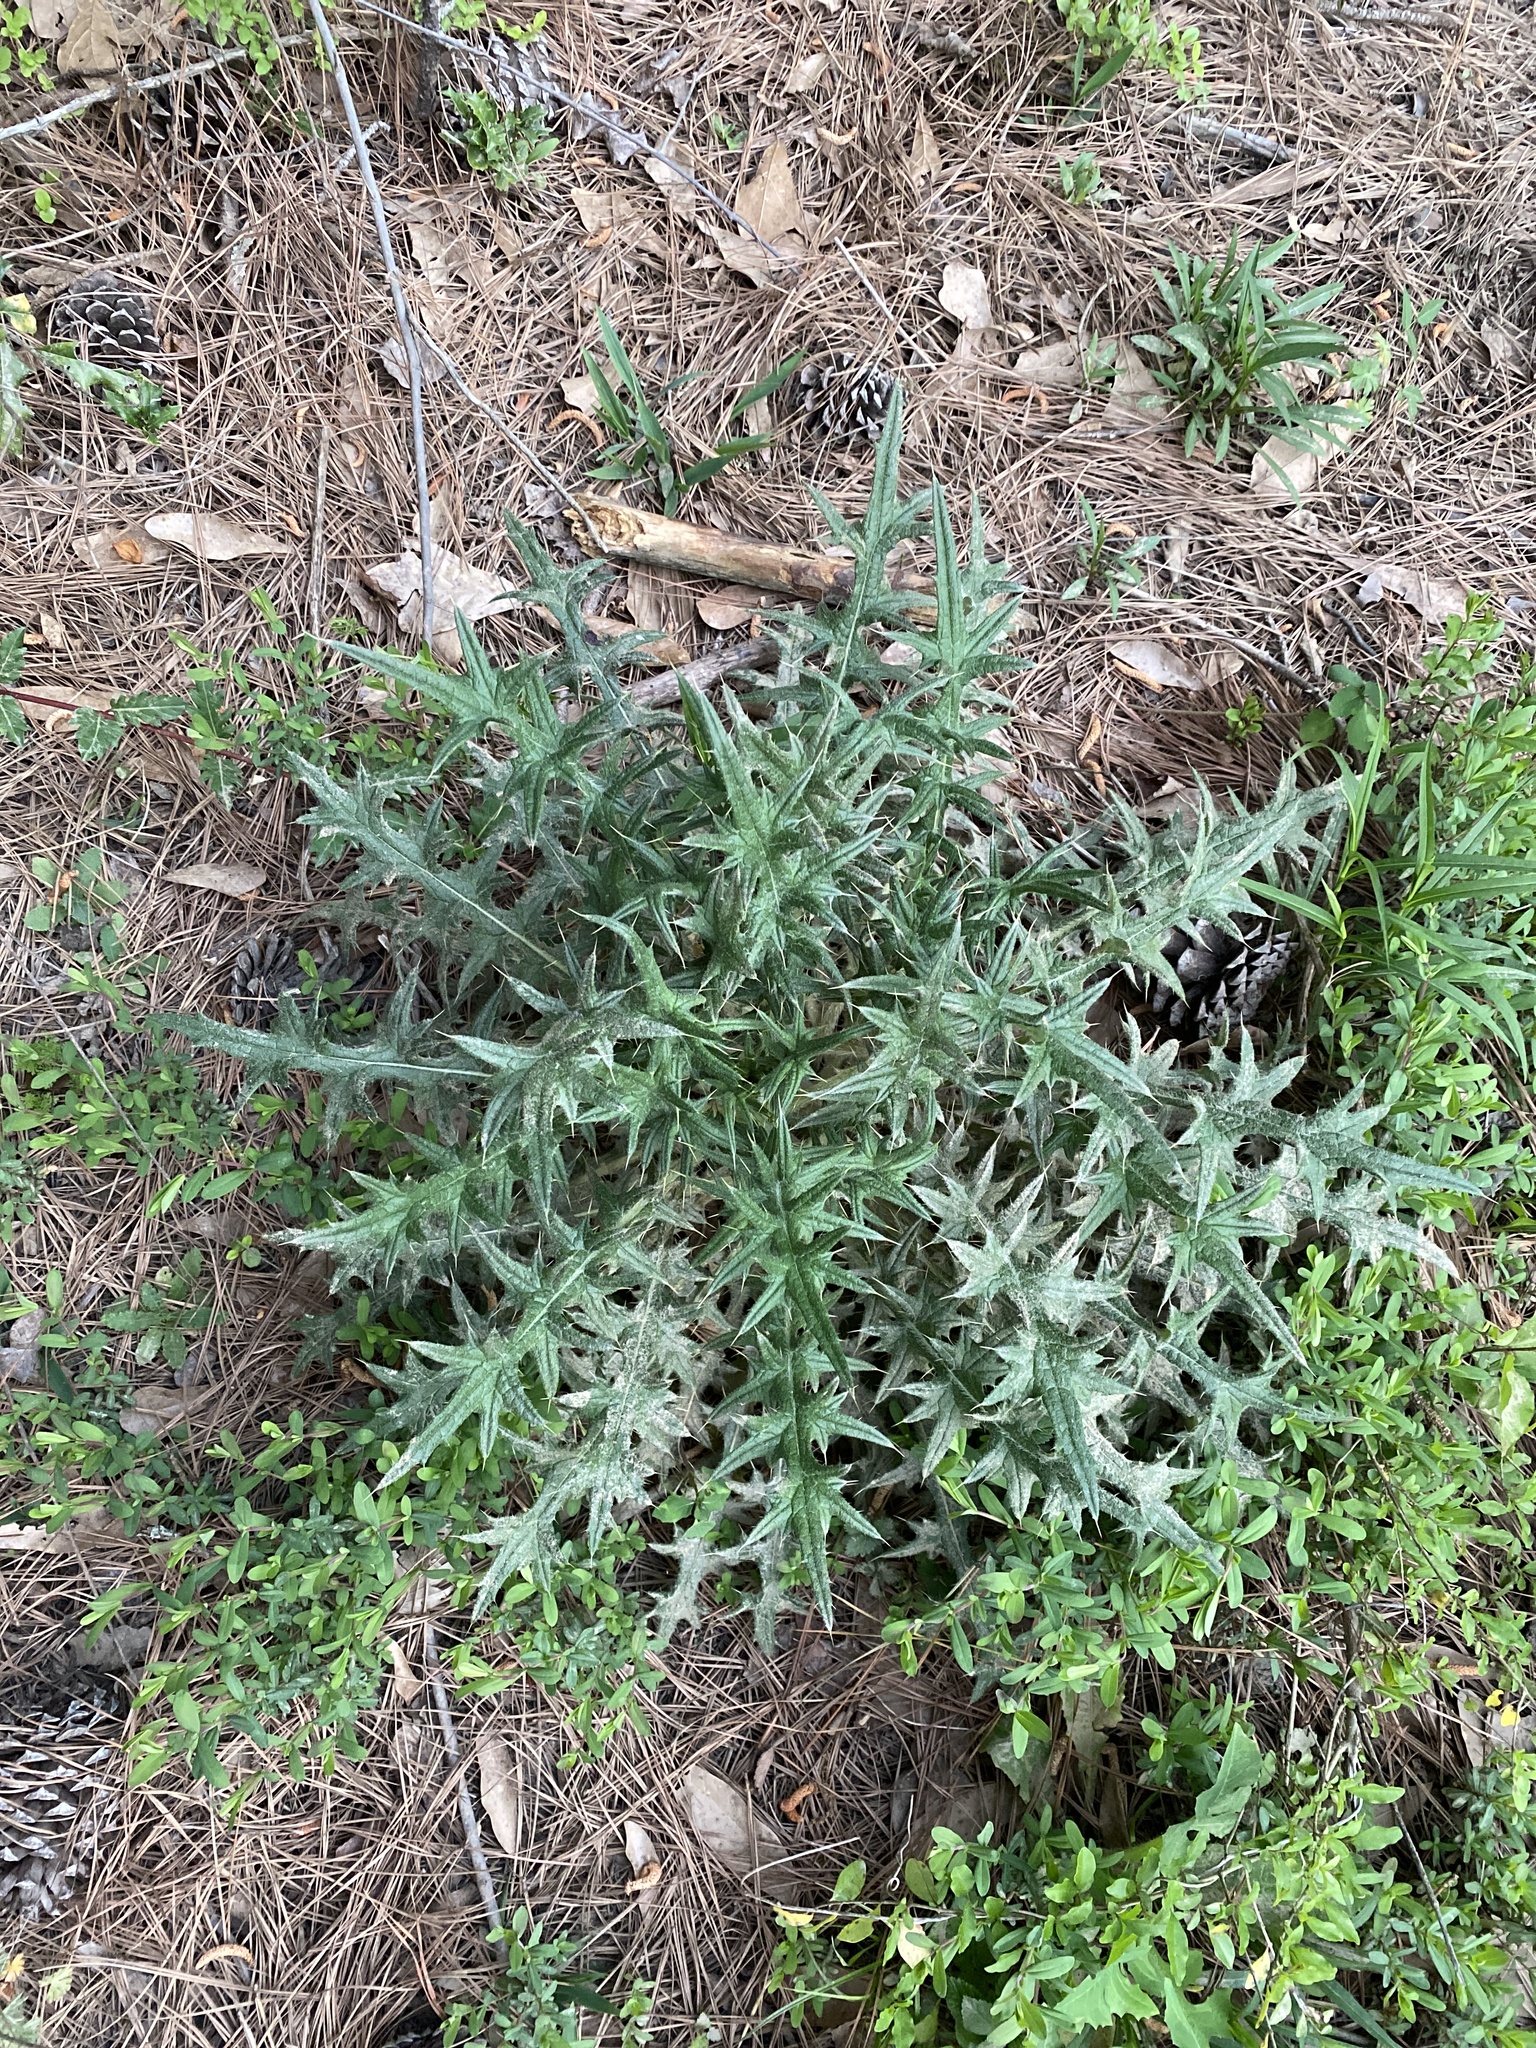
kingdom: Plantae
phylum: Tracheophyta
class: Magnoliopsida
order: Asterales
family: Asteraceae
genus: Cirsium
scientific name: Cirsium vulgare
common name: Bull thistle
